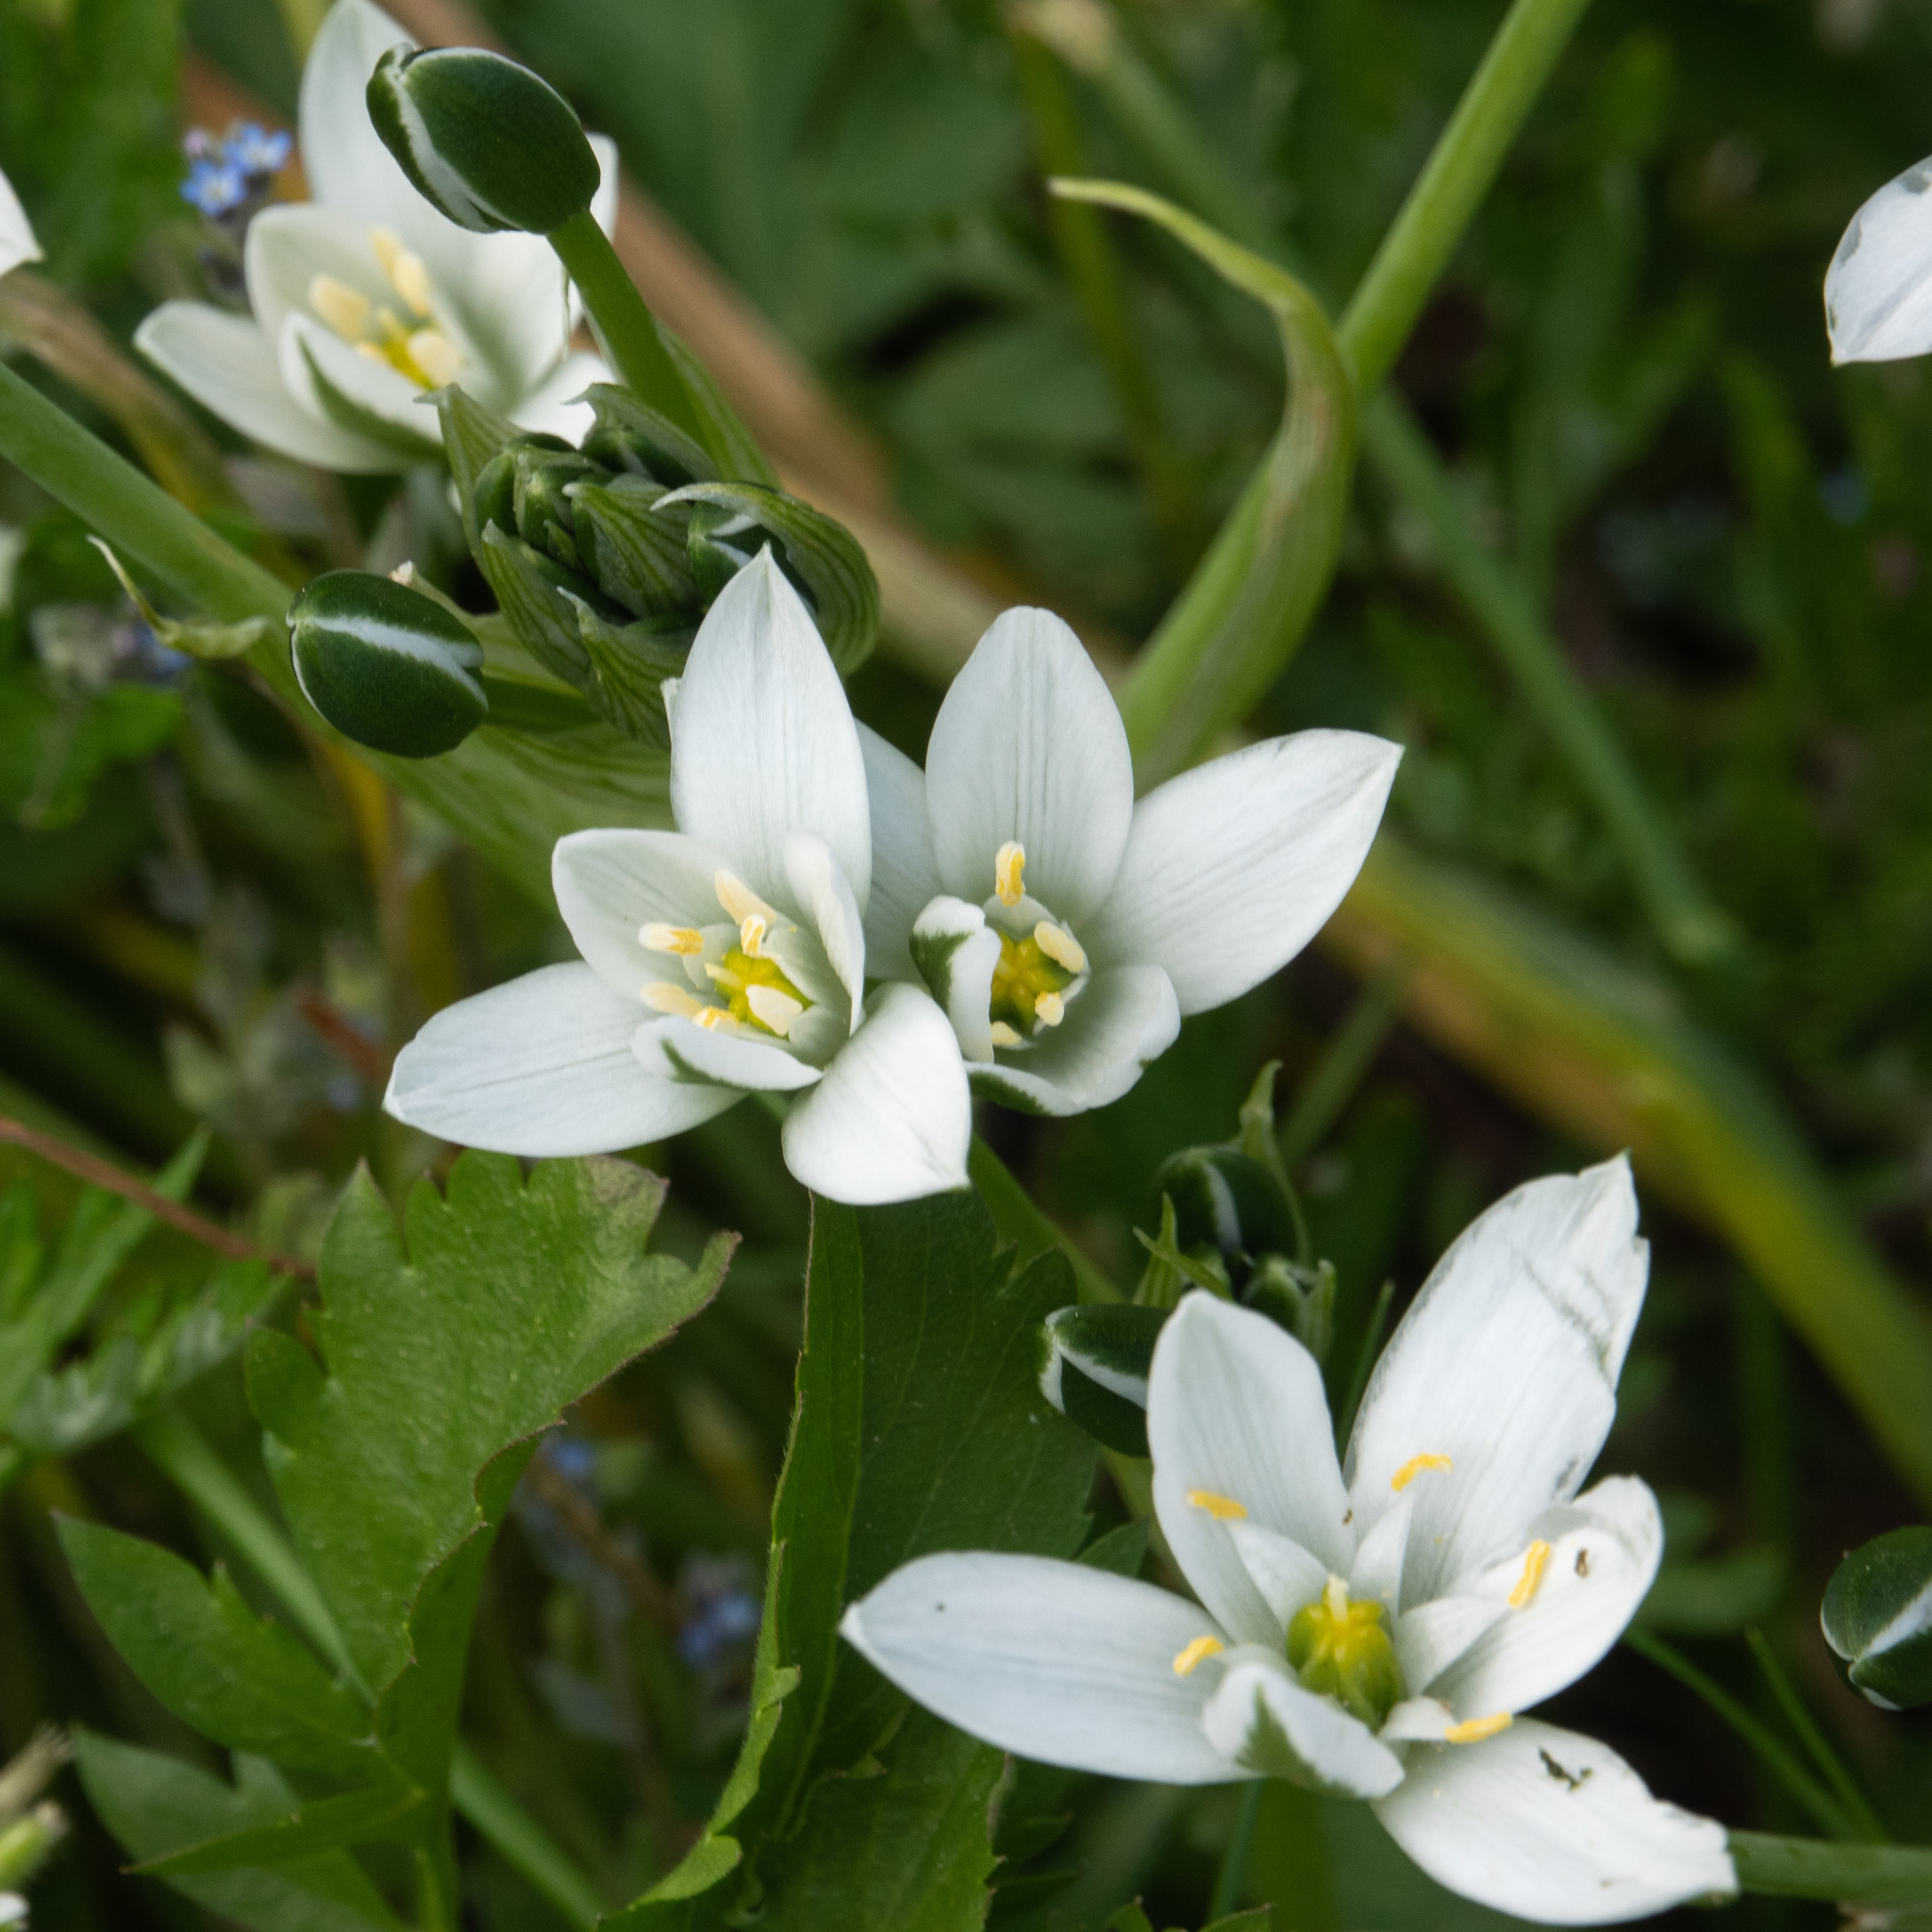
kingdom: Plantae
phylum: Tracheophyta
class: Liliopsida
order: Asparagales
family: Asparagaceae
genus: Ornithogalum
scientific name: Ornithogalum umbellatum
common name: Garden star-of-bethlehem
